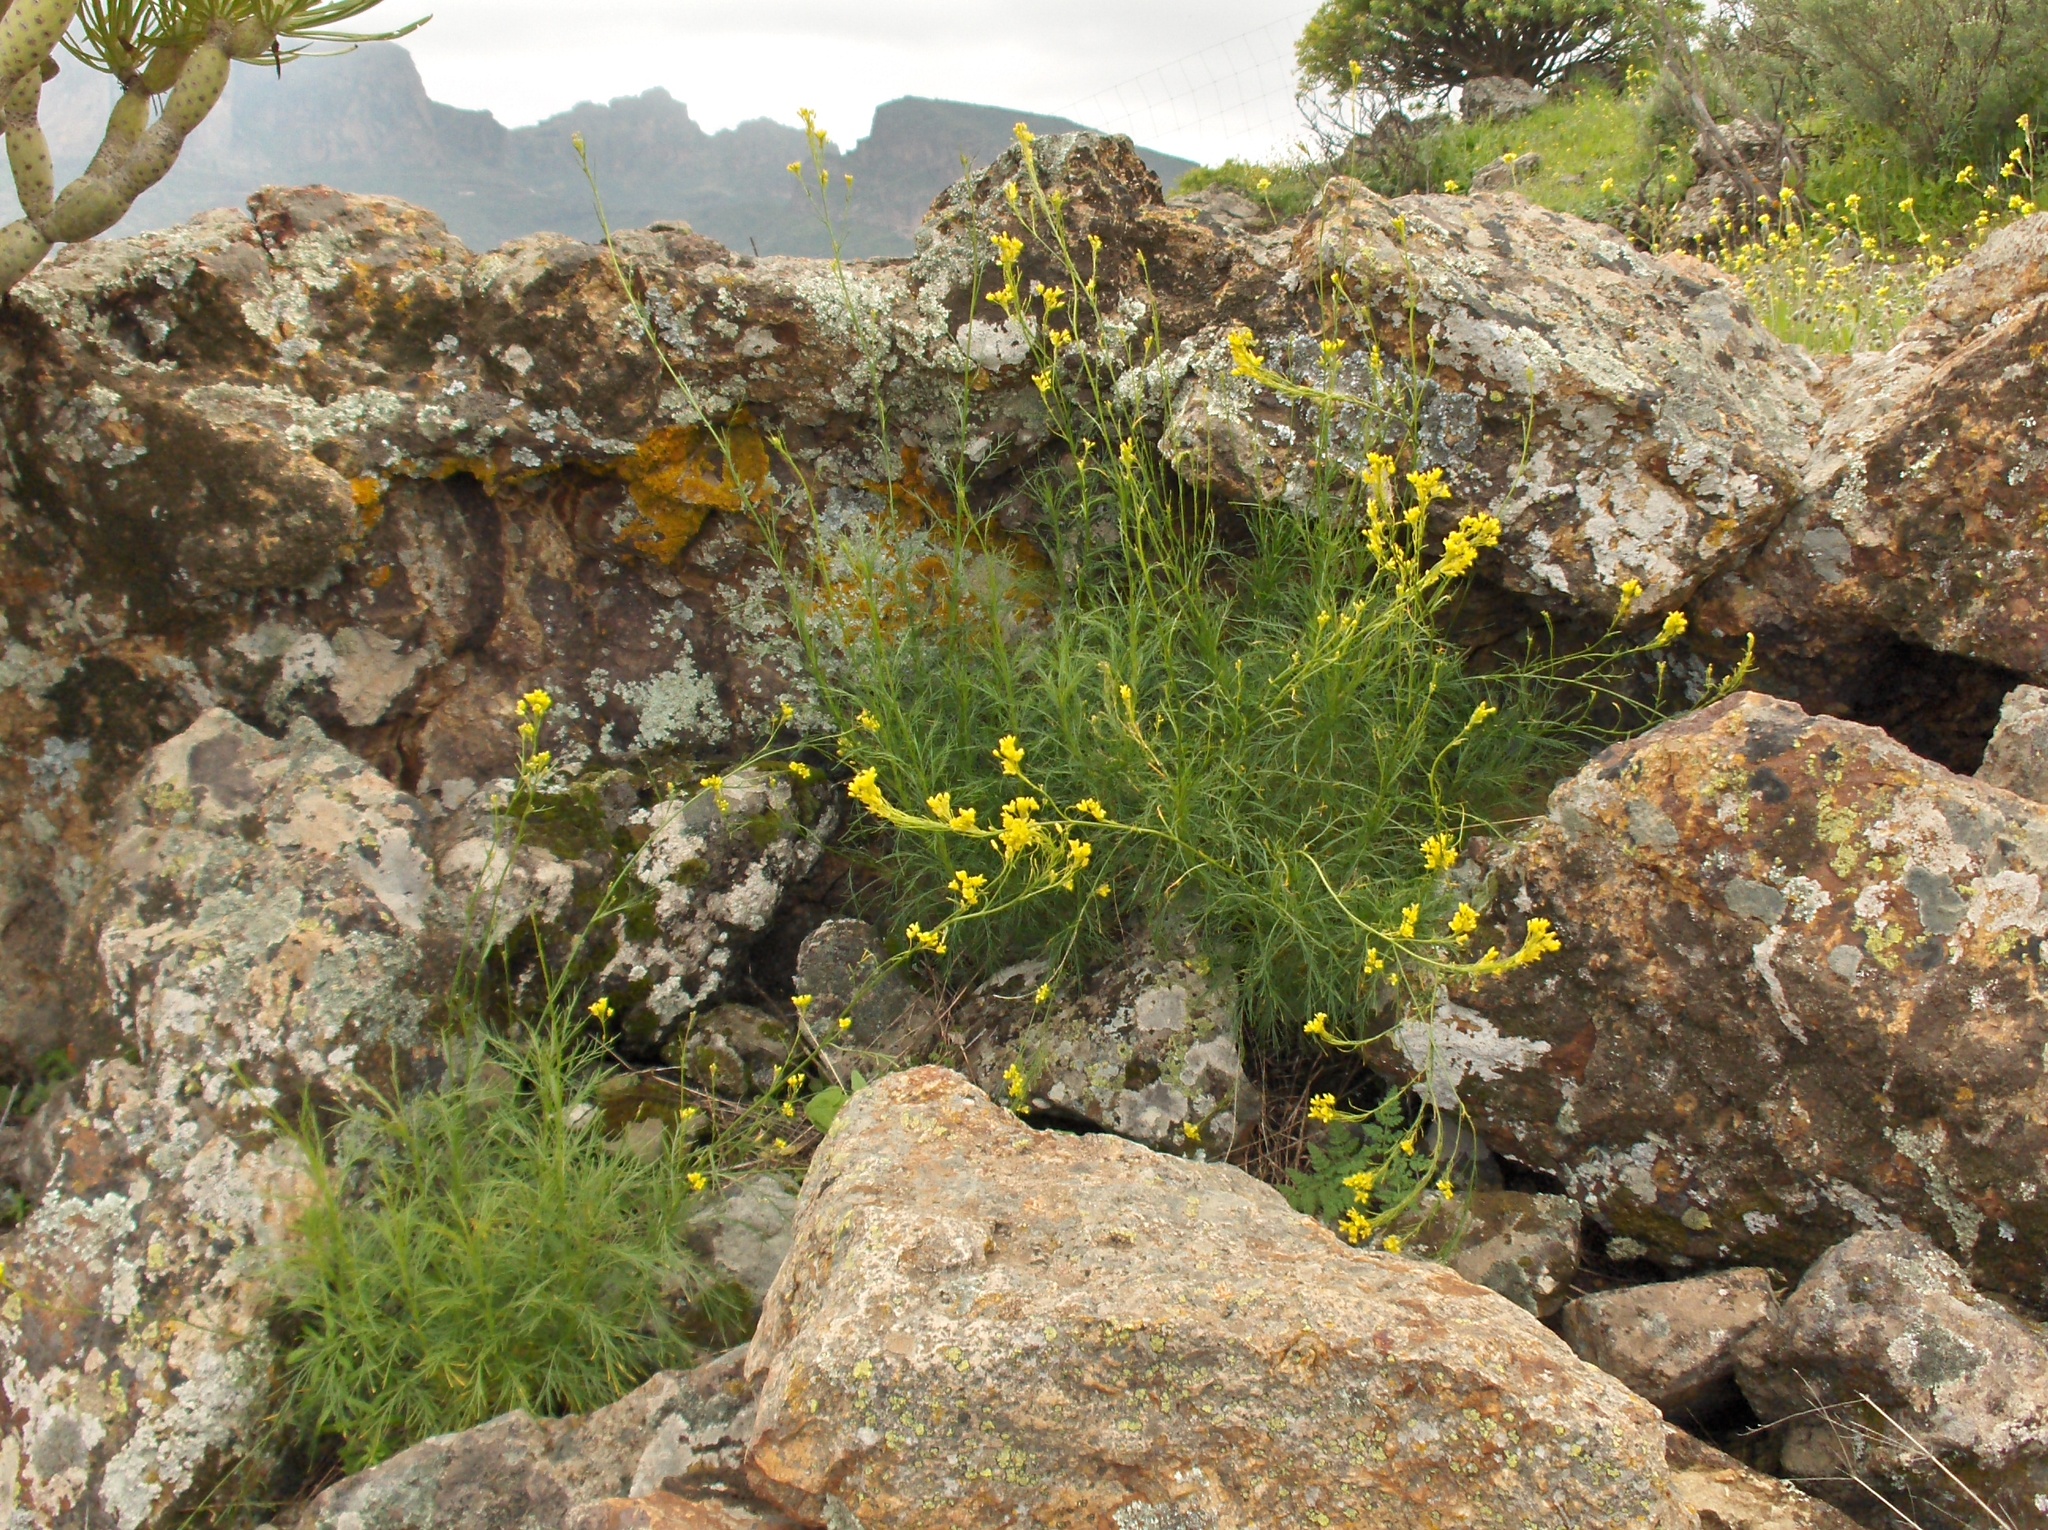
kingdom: Plantae
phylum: Tracheophyta
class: Magnoliopsida
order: Brassicales
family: Brassicaceae
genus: Descurainia
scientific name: Descurainia preauxiana
